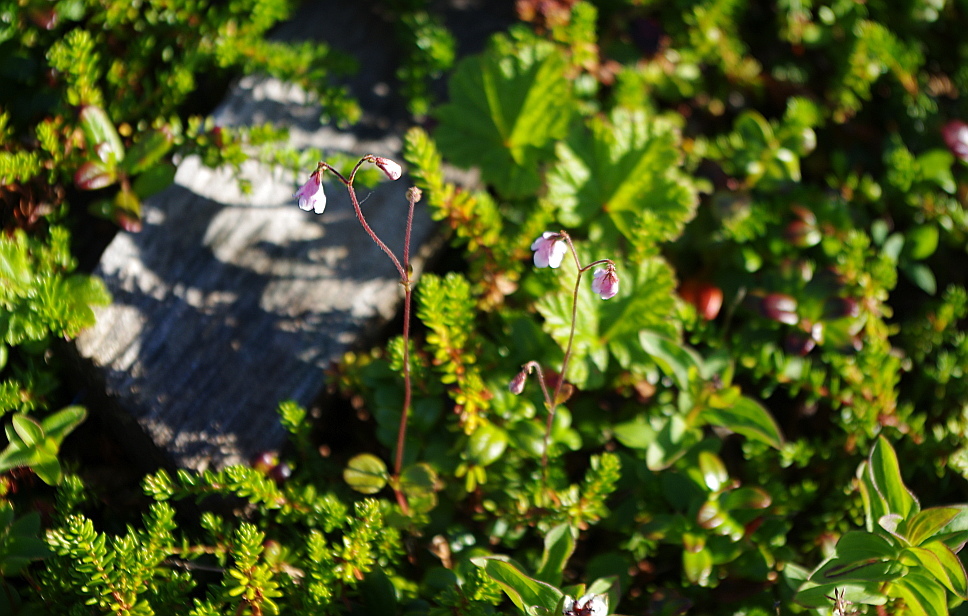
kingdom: Plantae
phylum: Tracheophyta
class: Magnoliopsida
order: Dipsacales
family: Caprifoliaceae
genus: Linnaea
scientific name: Linnaea borealis
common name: Twinflower
